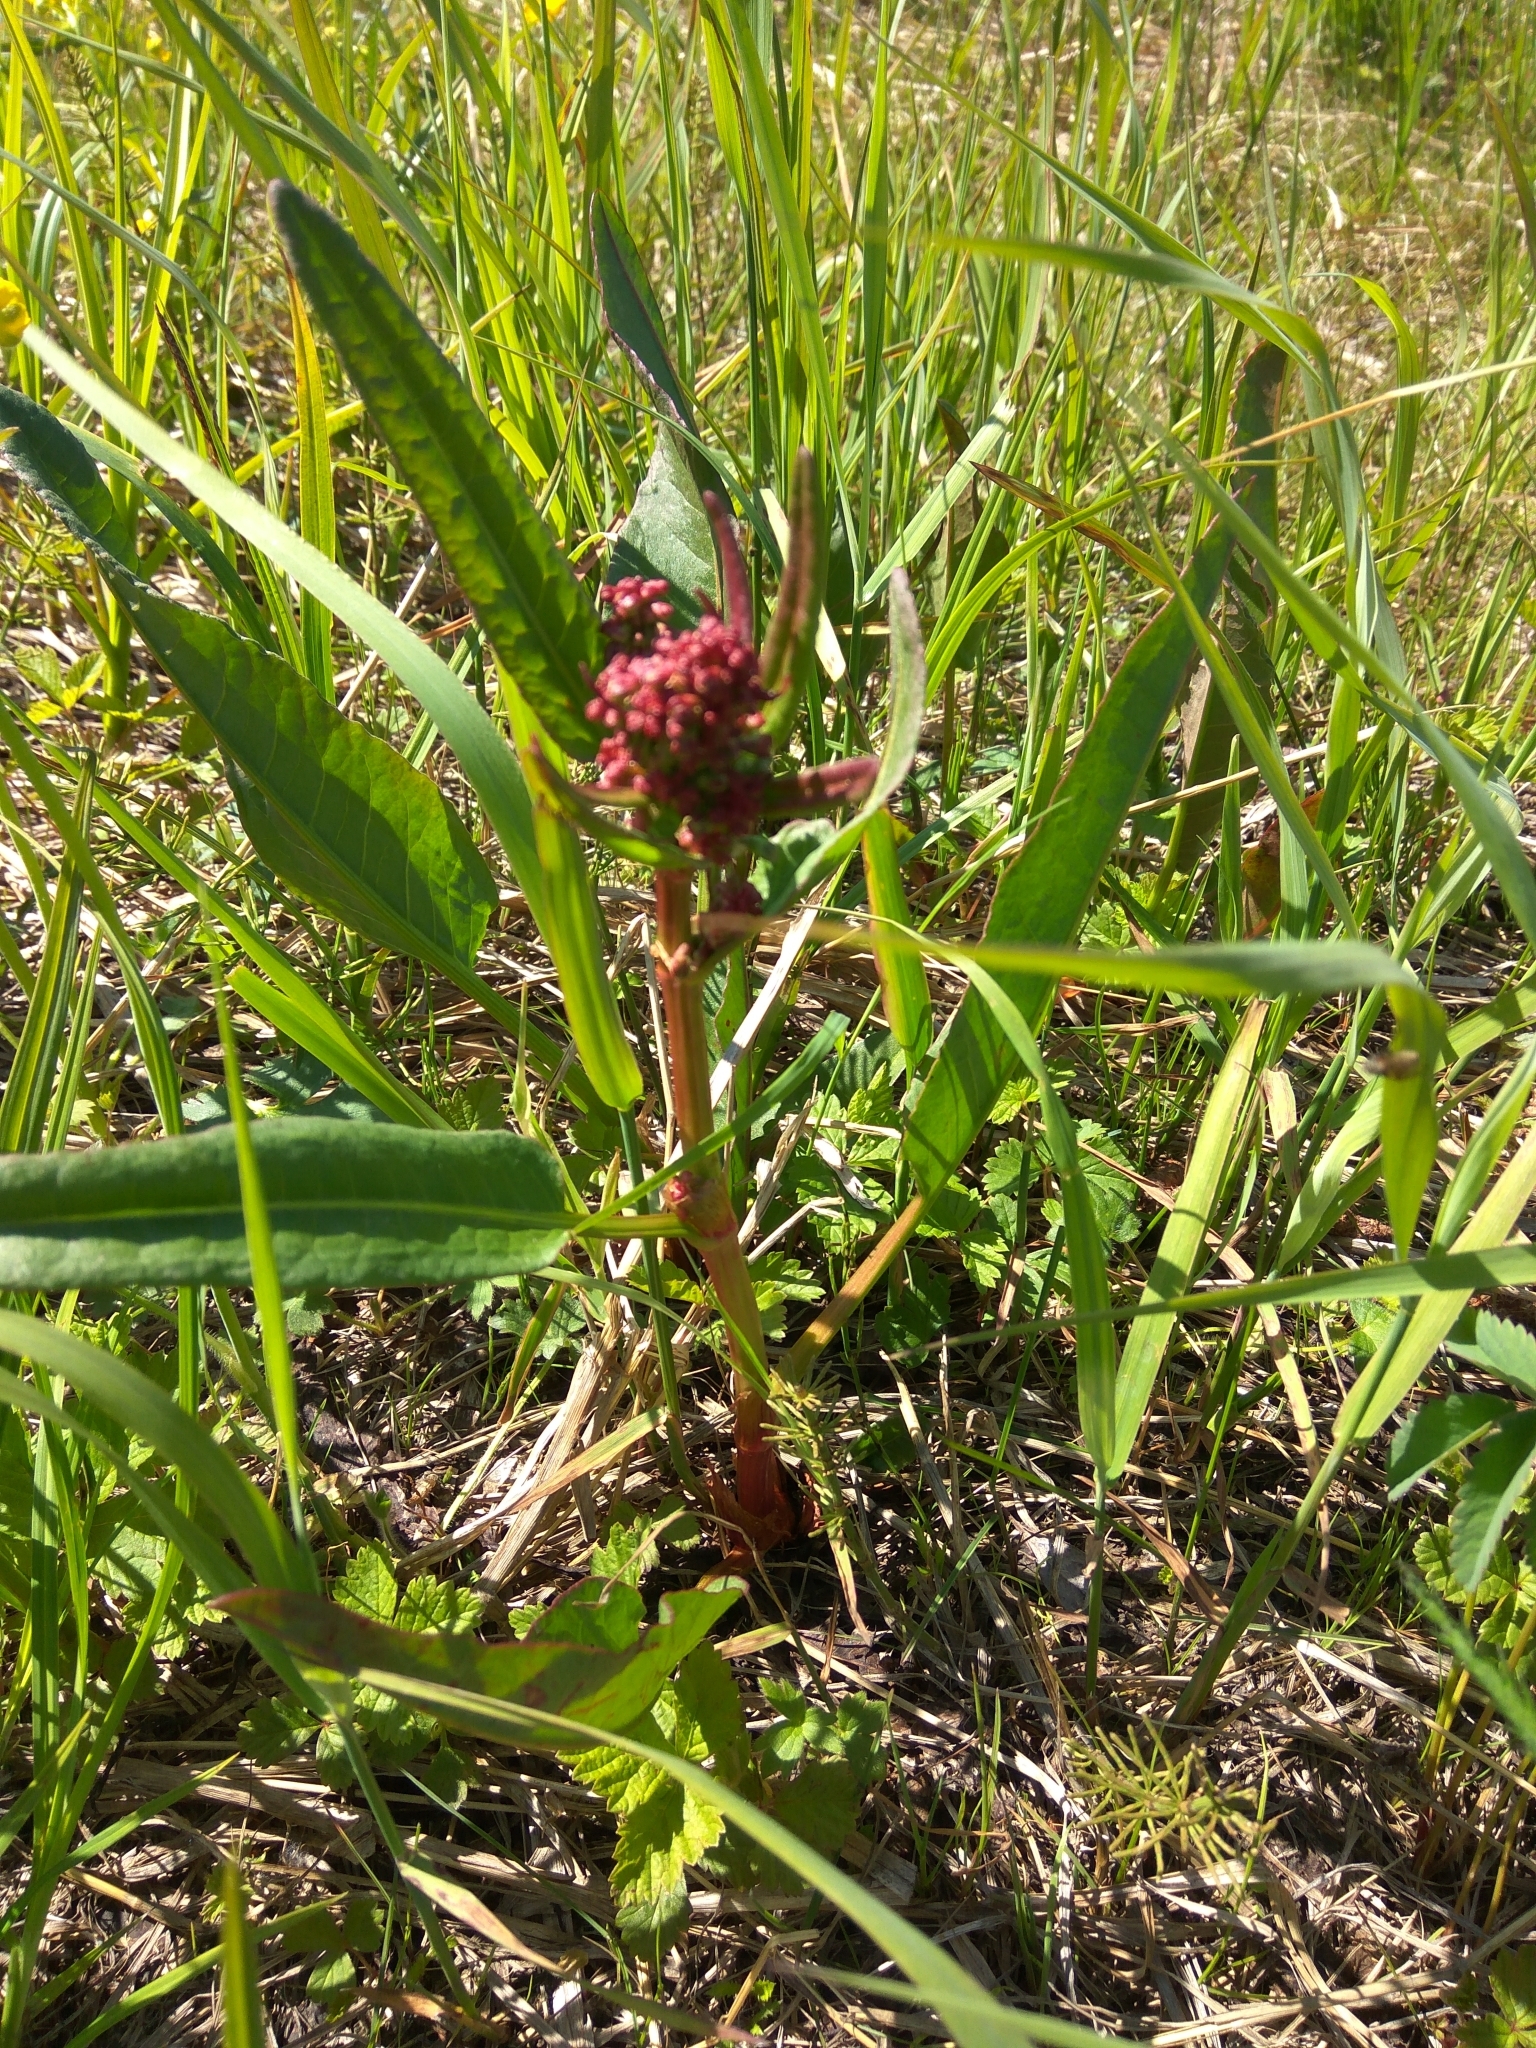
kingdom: Plantae
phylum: Tracheophyta
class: Magnoliopsida
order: Caryophyllales
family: Polygonaceae
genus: Rumex
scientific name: Rumex arcticus
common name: Arctic dock
